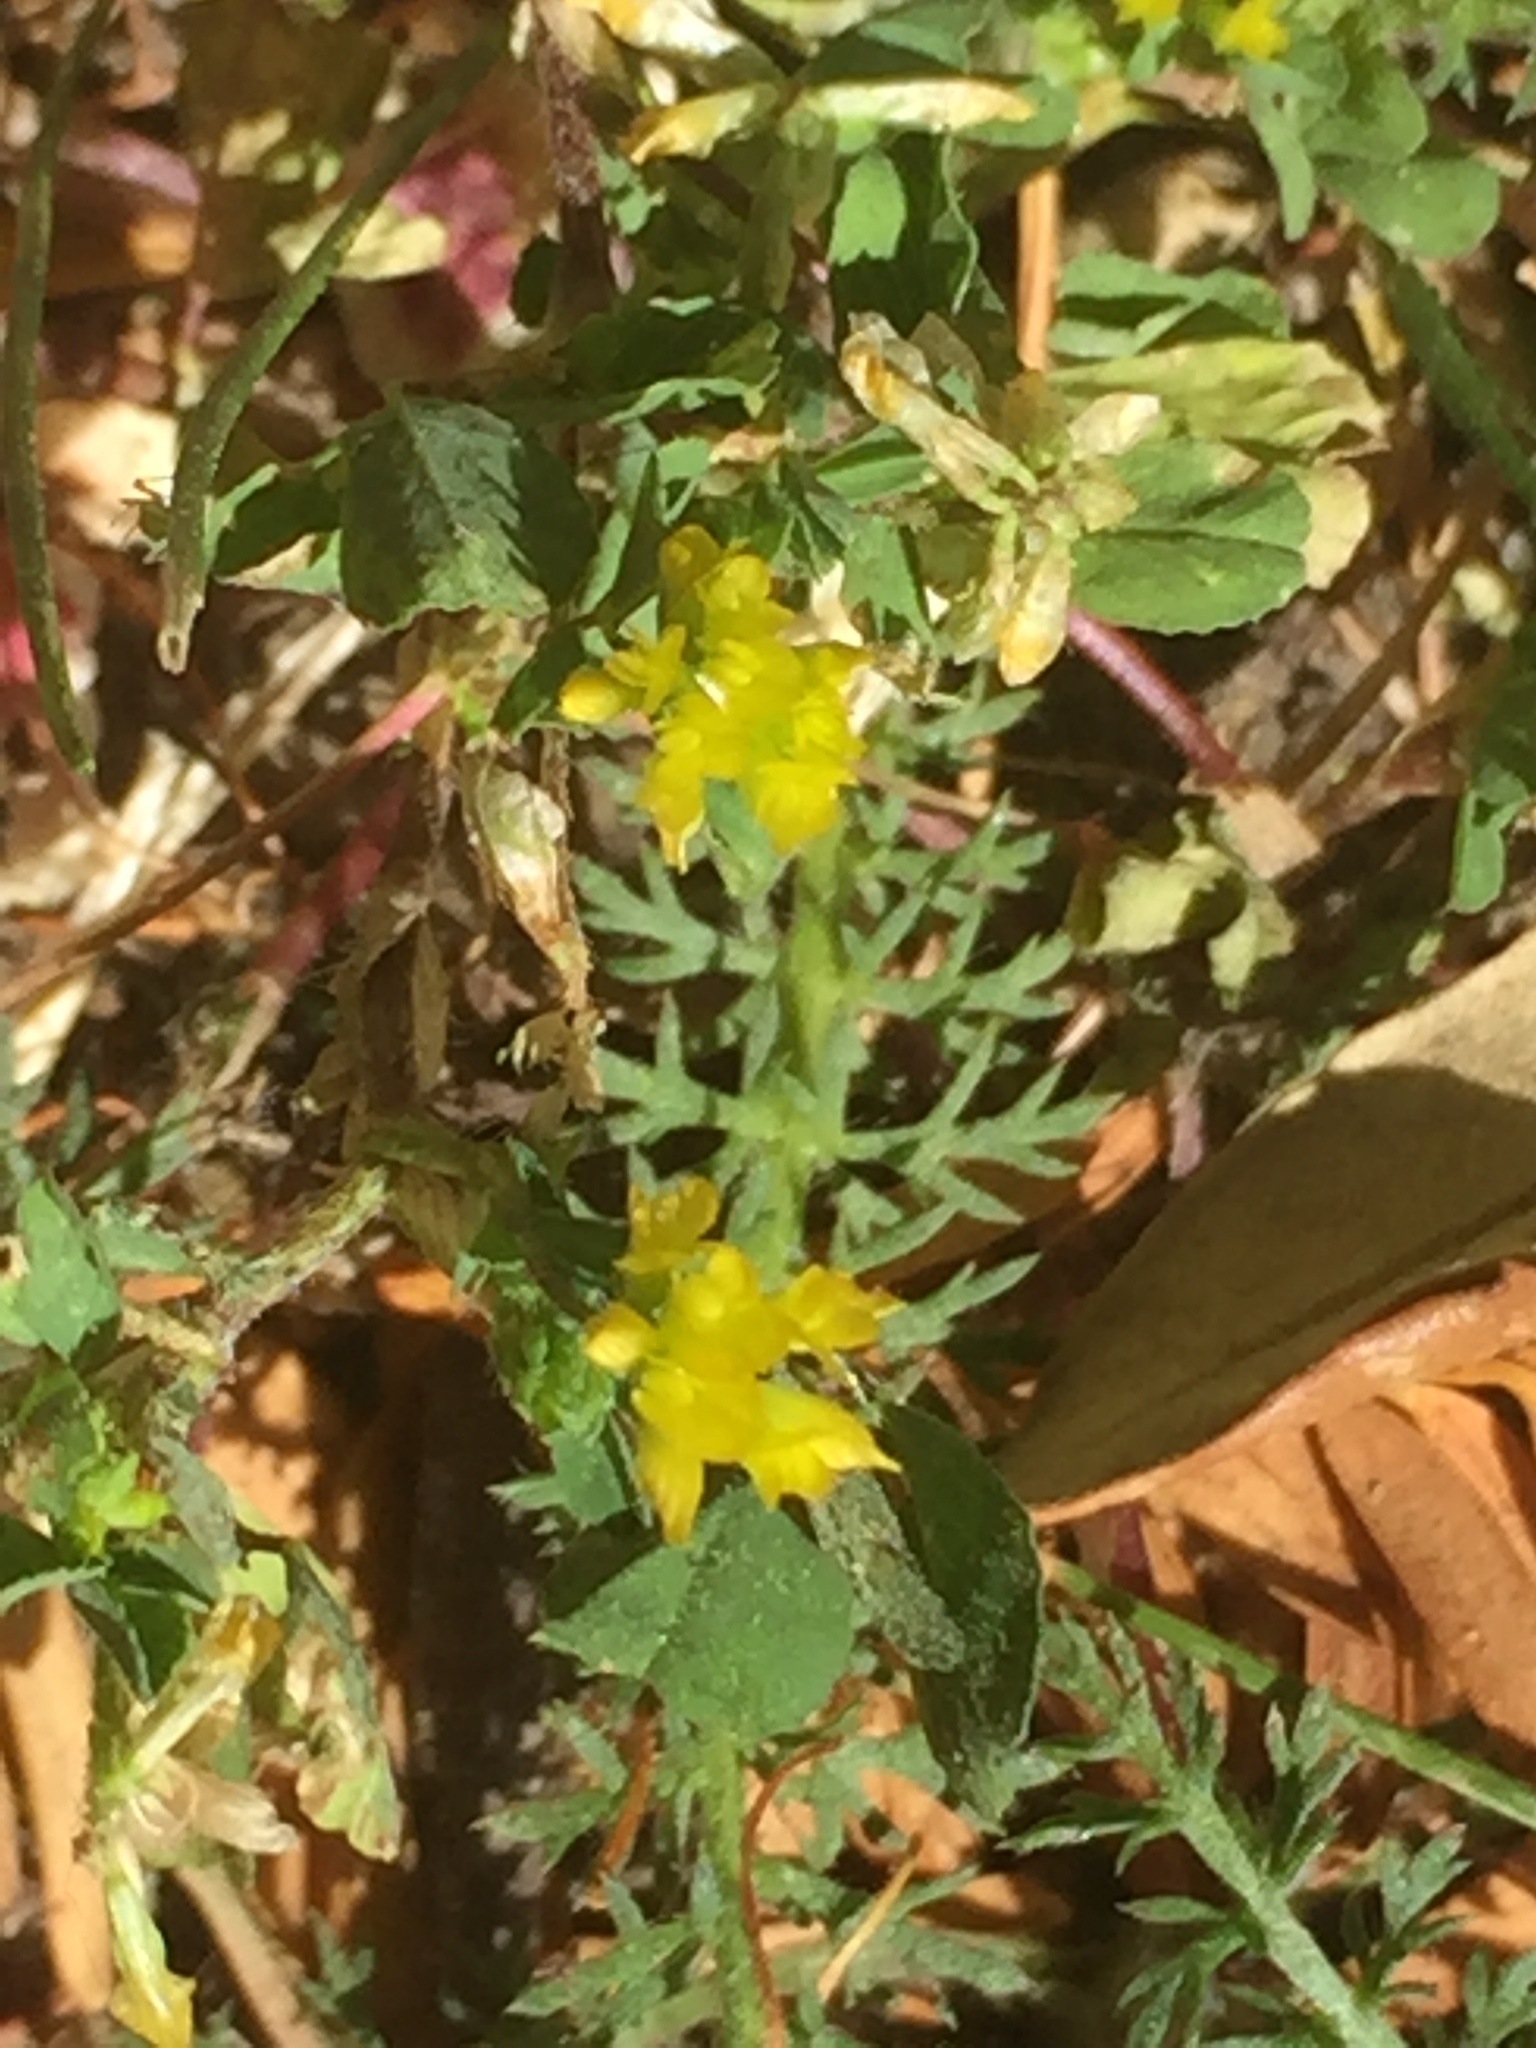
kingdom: Plantae
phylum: Tracheophyta
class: Magnoliopsida
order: Fabales
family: Fabaceae
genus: Trifolium
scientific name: Trifolium dubium
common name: Suckling clover
